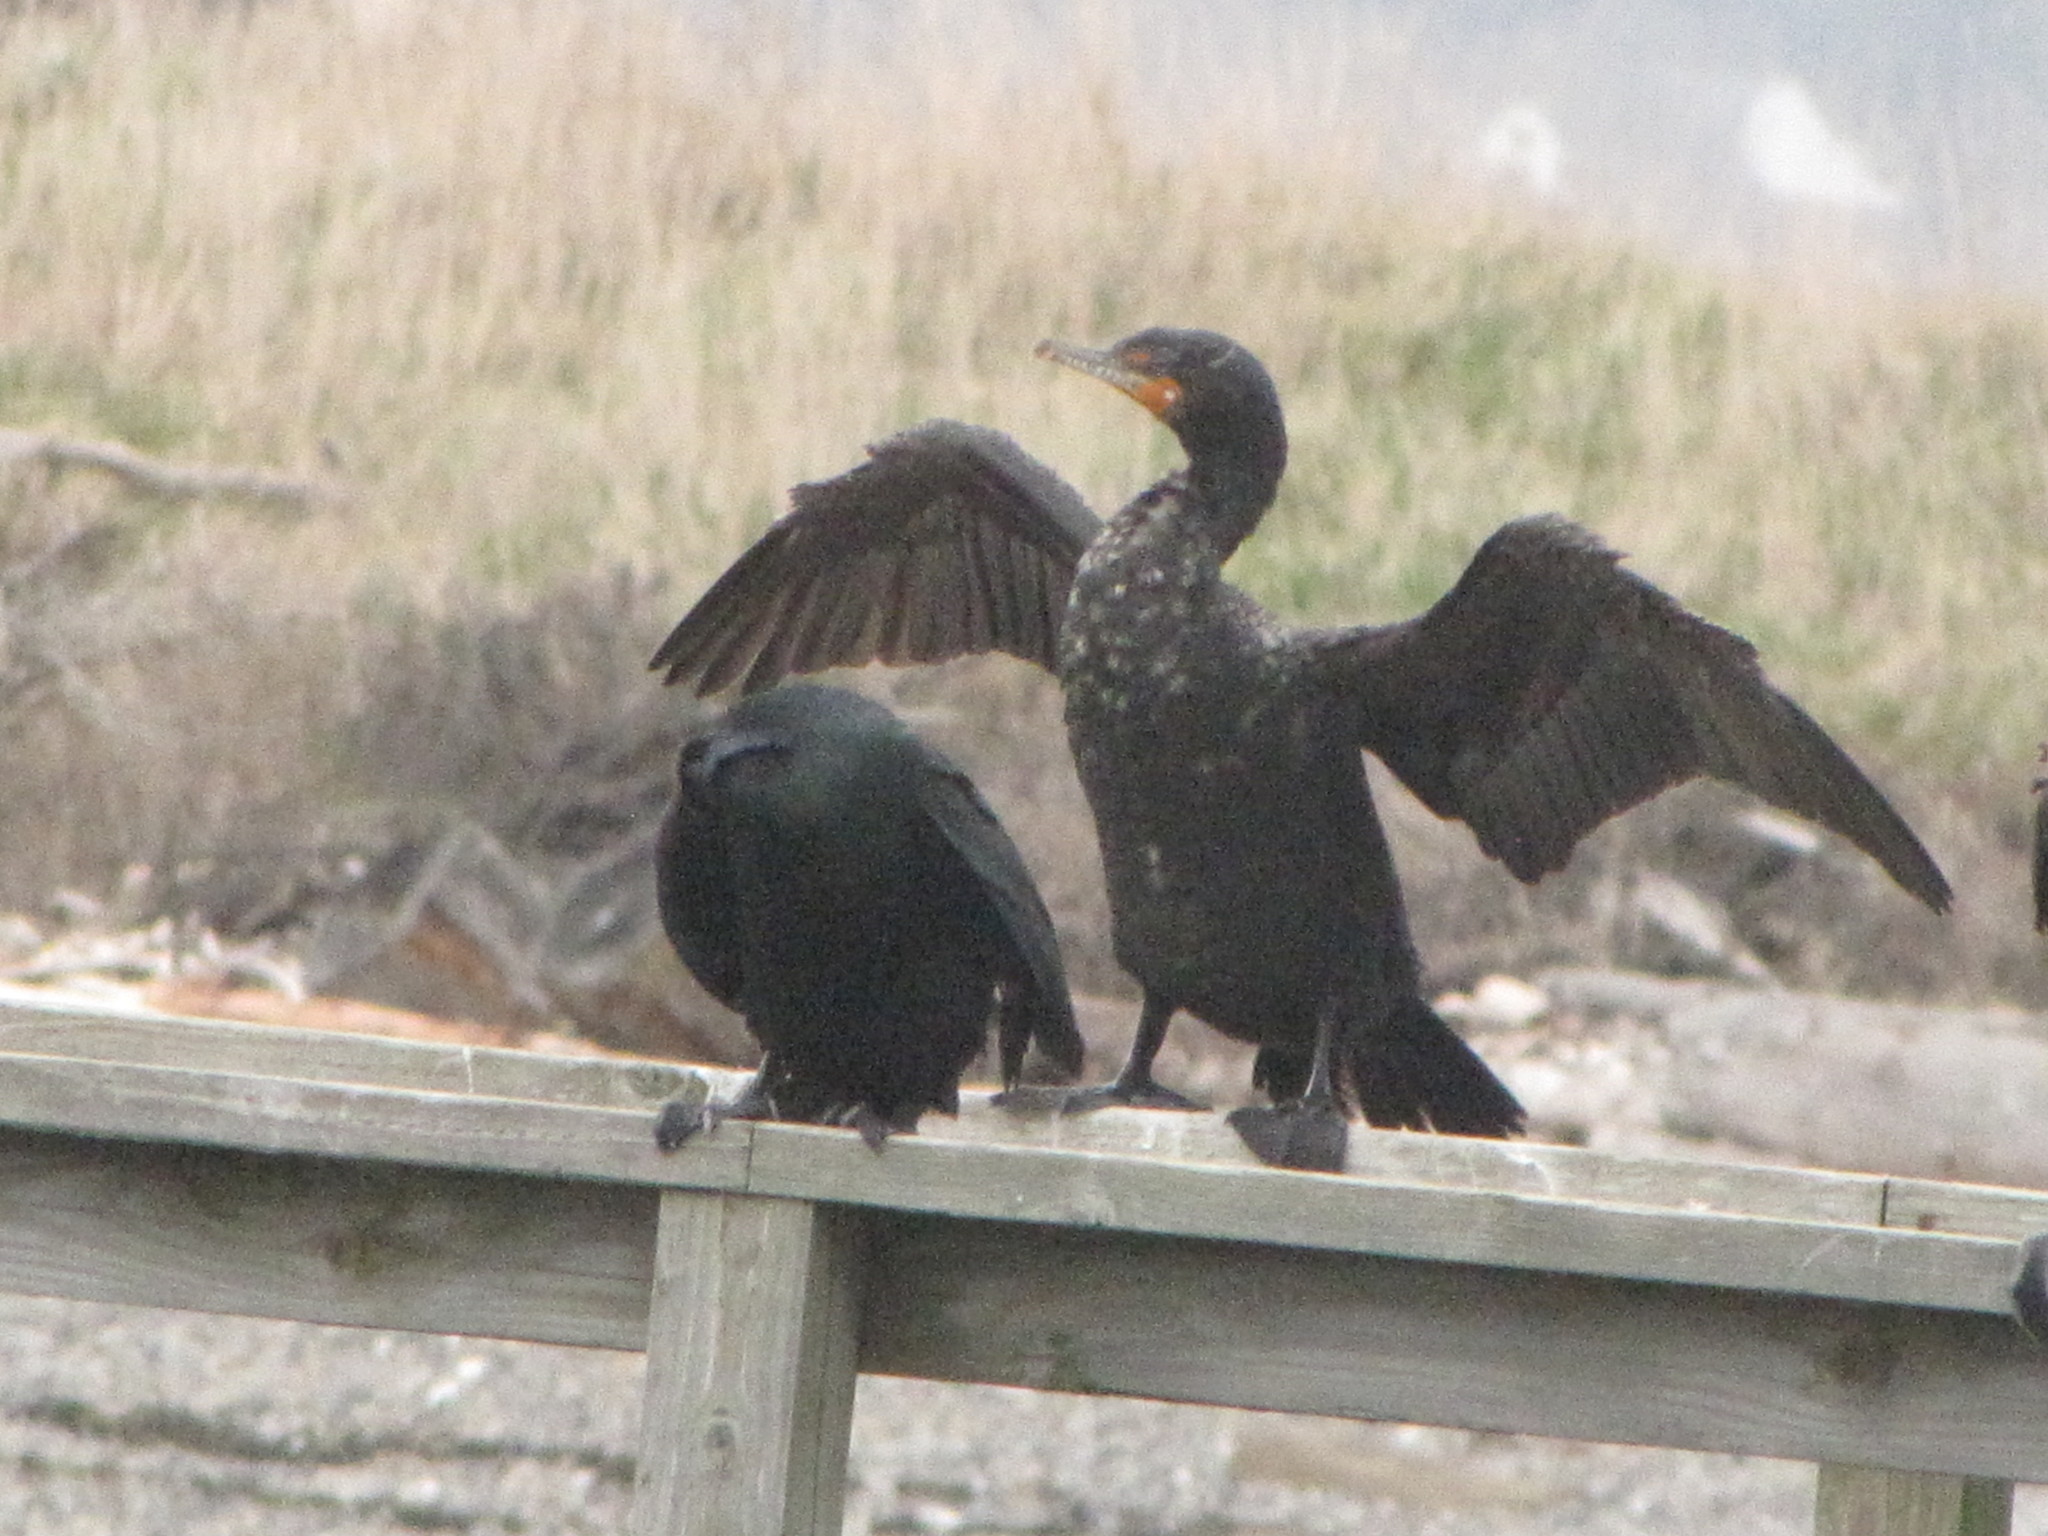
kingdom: Animalia
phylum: Chordata
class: Aves
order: Suliformes
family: Phalacrocoracidae
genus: Phalacrocorax
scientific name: Phalacrocorax auritus
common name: Double-crested cormorant
